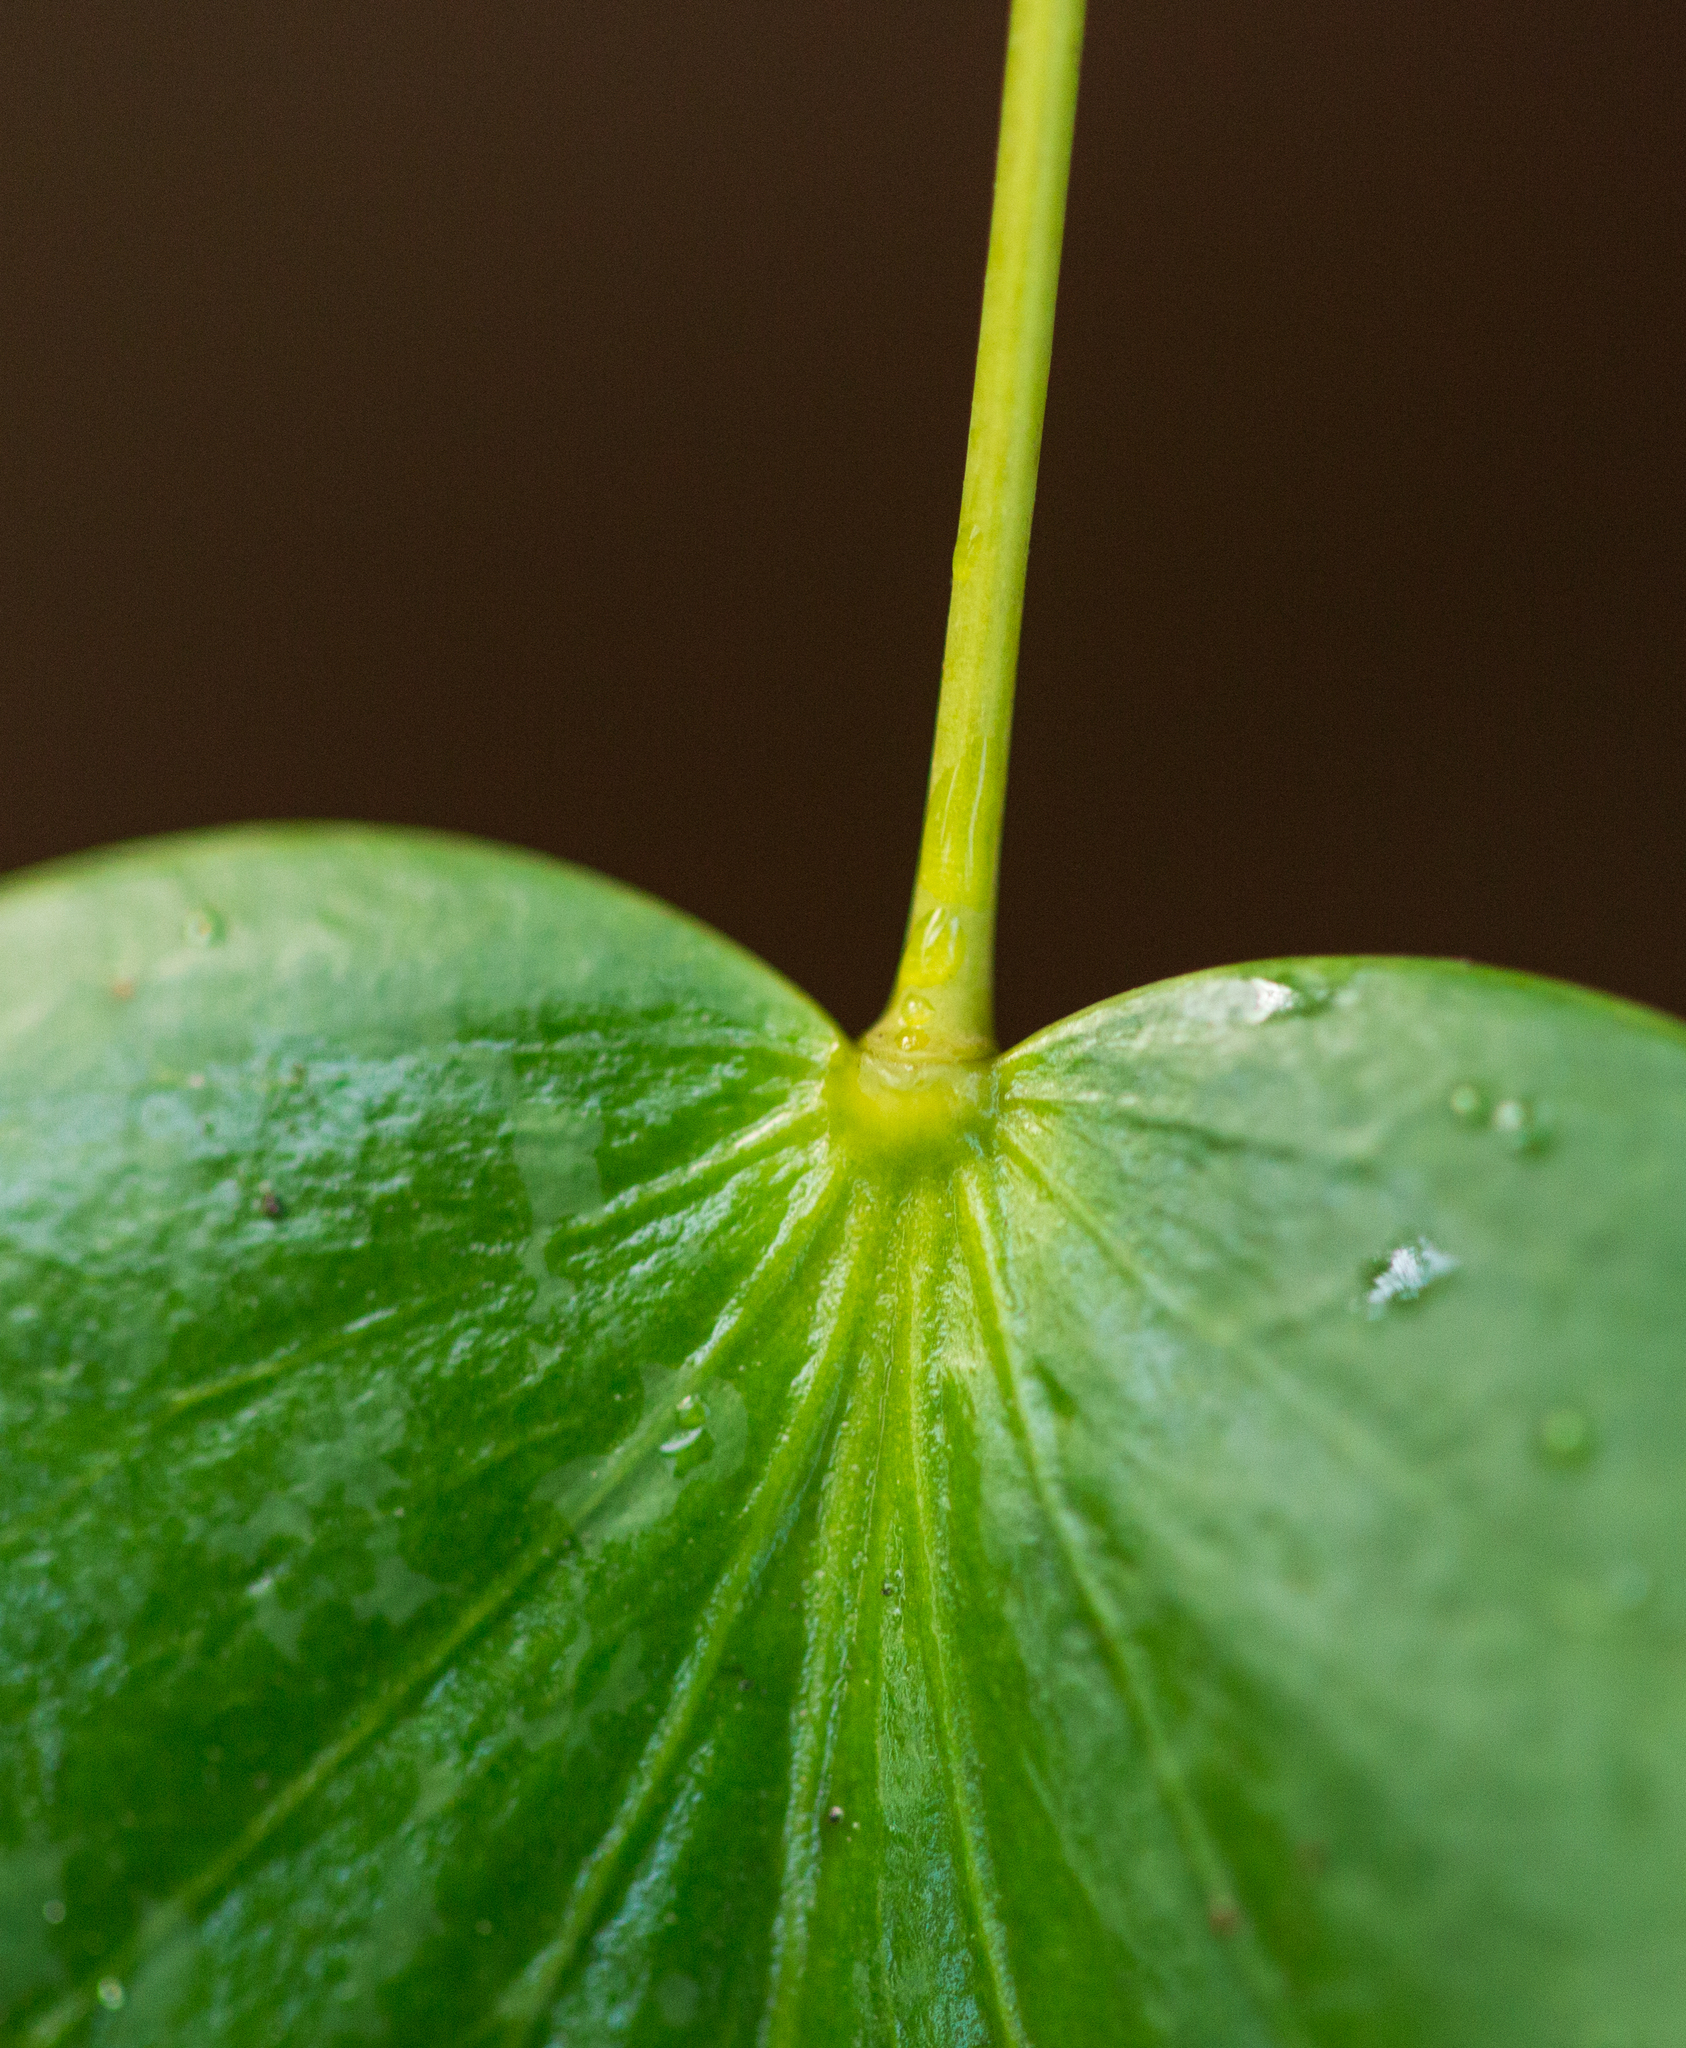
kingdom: Plantae
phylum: Tracheophyta
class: Magnoliopsida
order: Ranunculales
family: Berberidaceae
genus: Mahonia
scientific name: Mahonia nervosa
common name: Cascade oregon-grape
